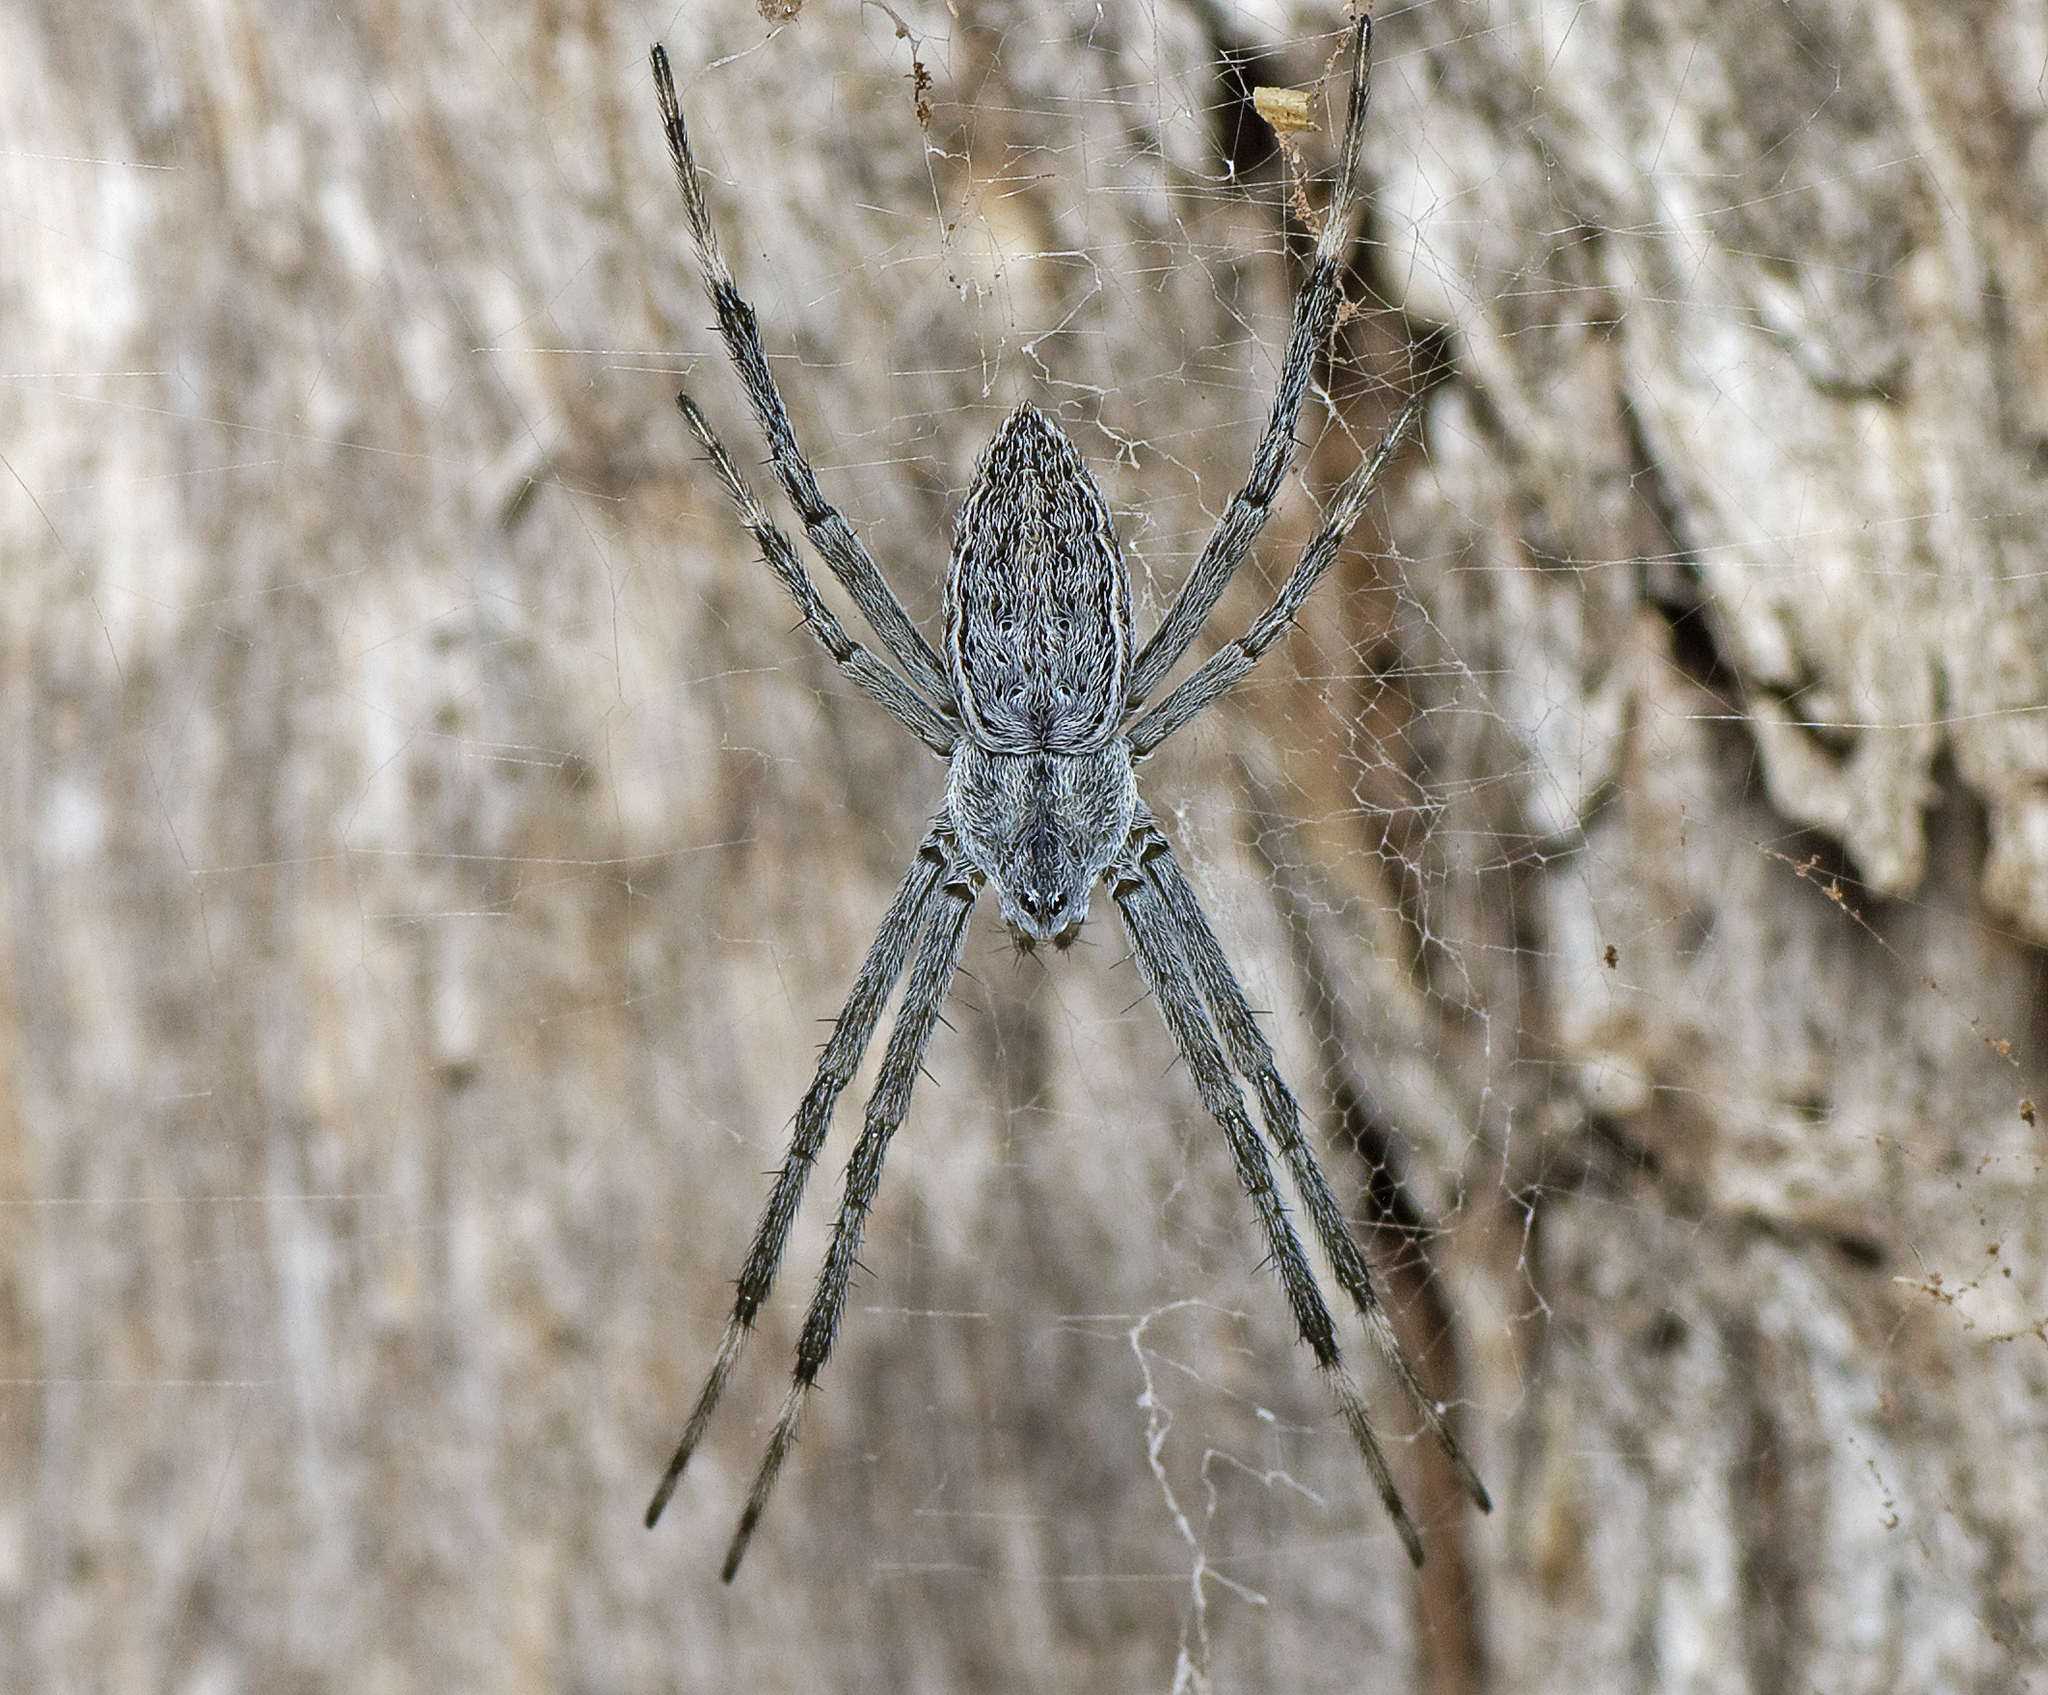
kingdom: Animalia
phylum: Arthropoda
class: Arachnida
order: Araneae
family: Araneidae
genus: Argiope
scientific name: Argiope ocyaloides
